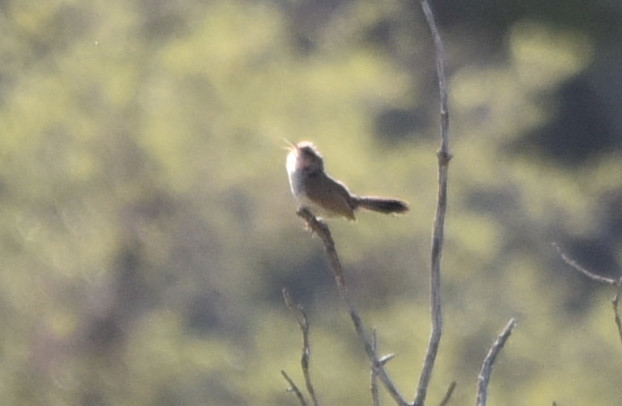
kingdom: Animalia
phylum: Chordata
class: Aves
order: Passeriformes
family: Troglodytidae
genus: Thryomanes
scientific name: Thryomanes bewickii
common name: Bewick's wren
